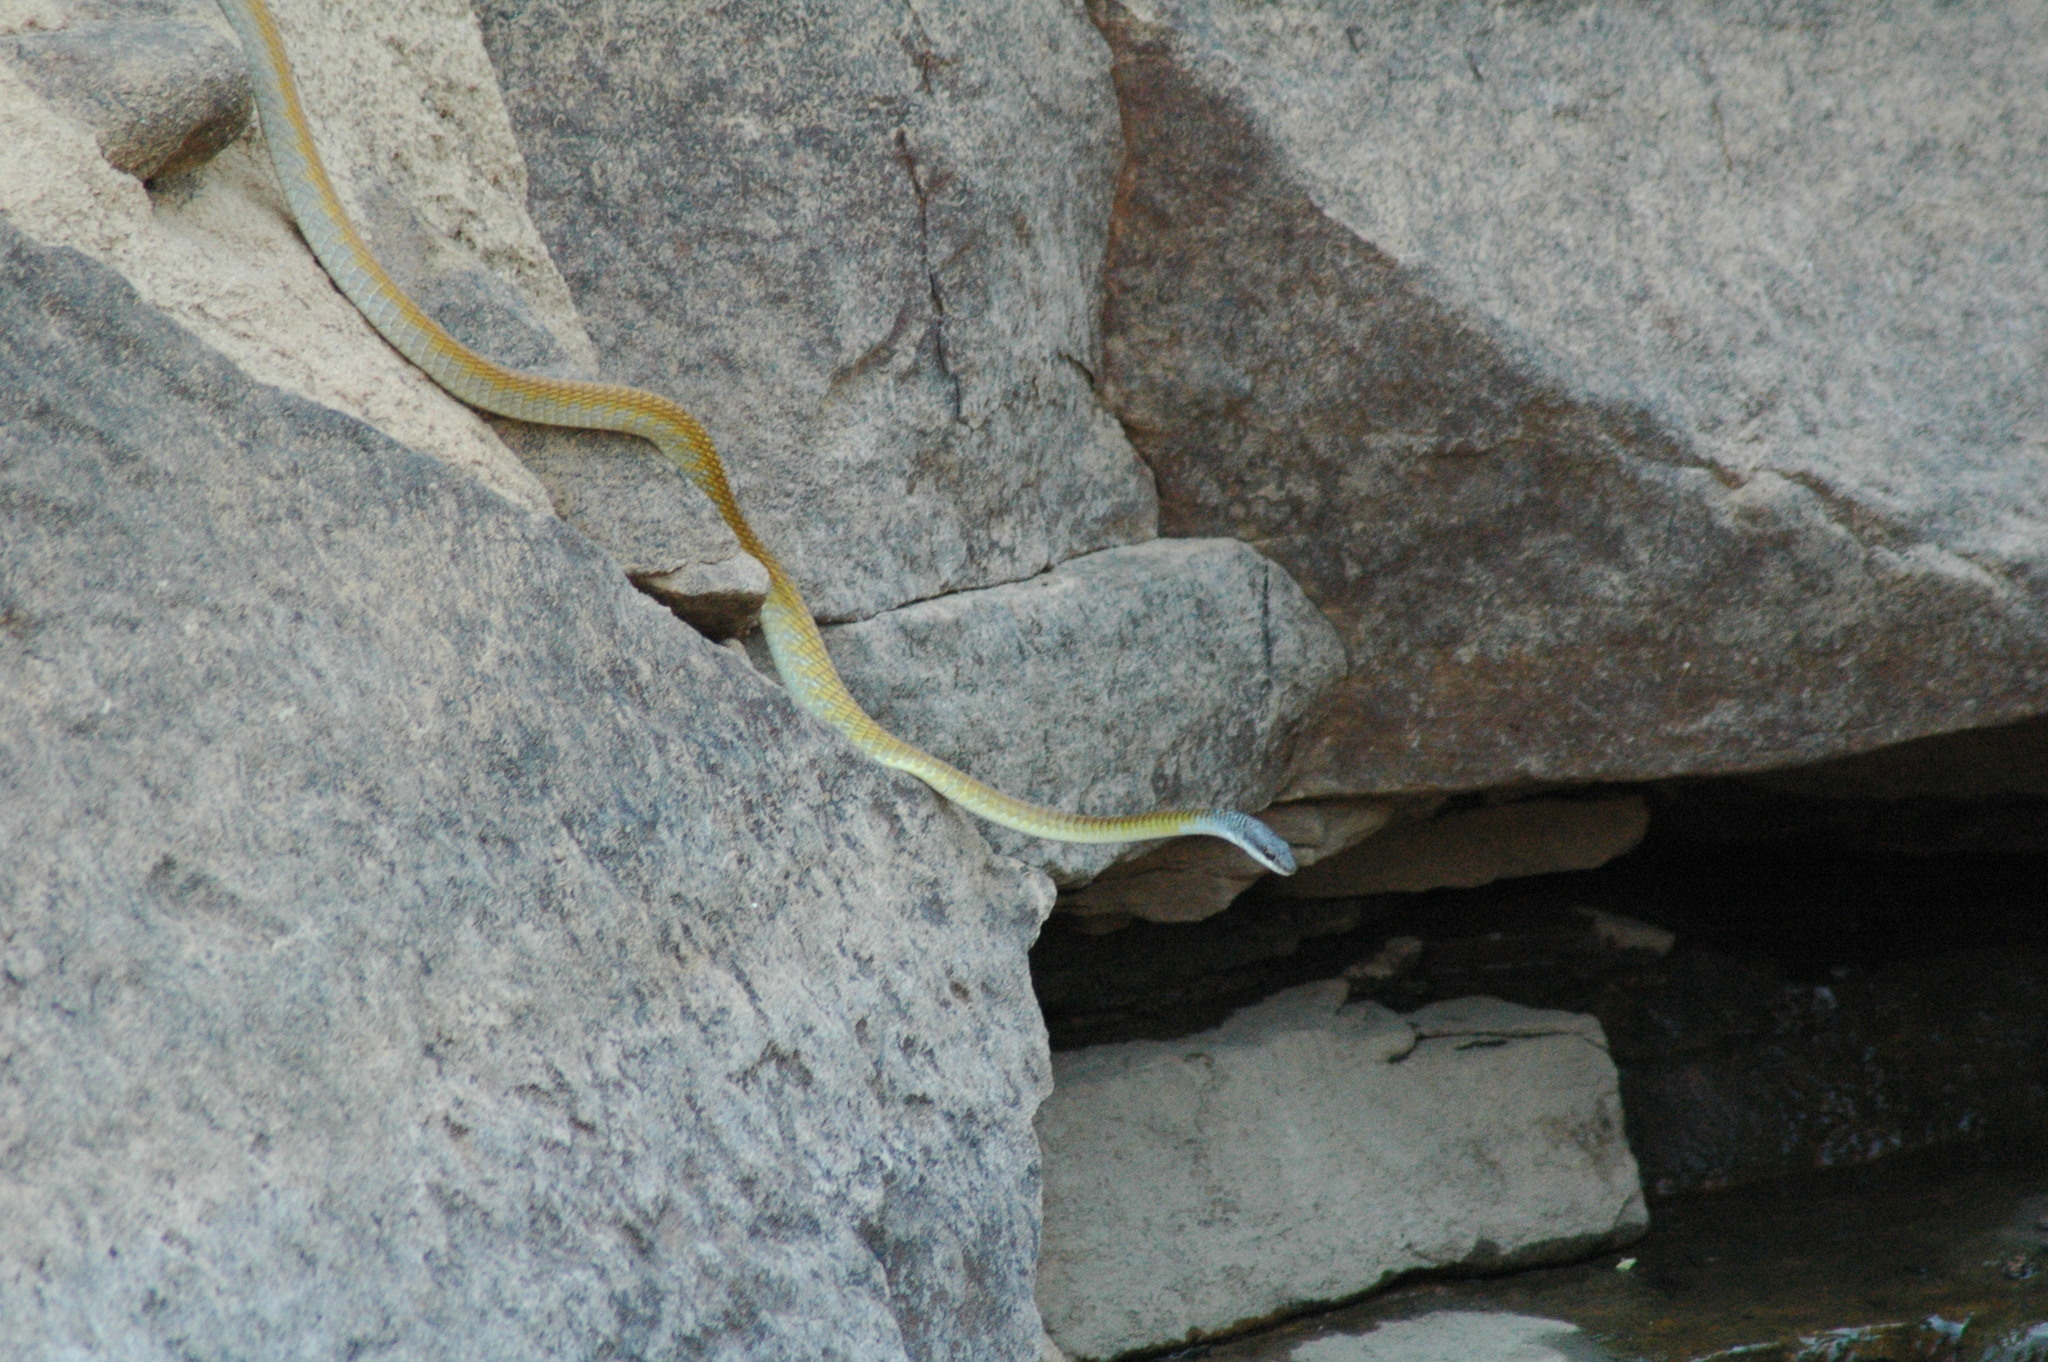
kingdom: Animalia
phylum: Chordata
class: Squamata
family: Colubridae
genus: Dendrelaphis
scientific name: Dendrelaphis punctulatus
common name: Common tree snake
